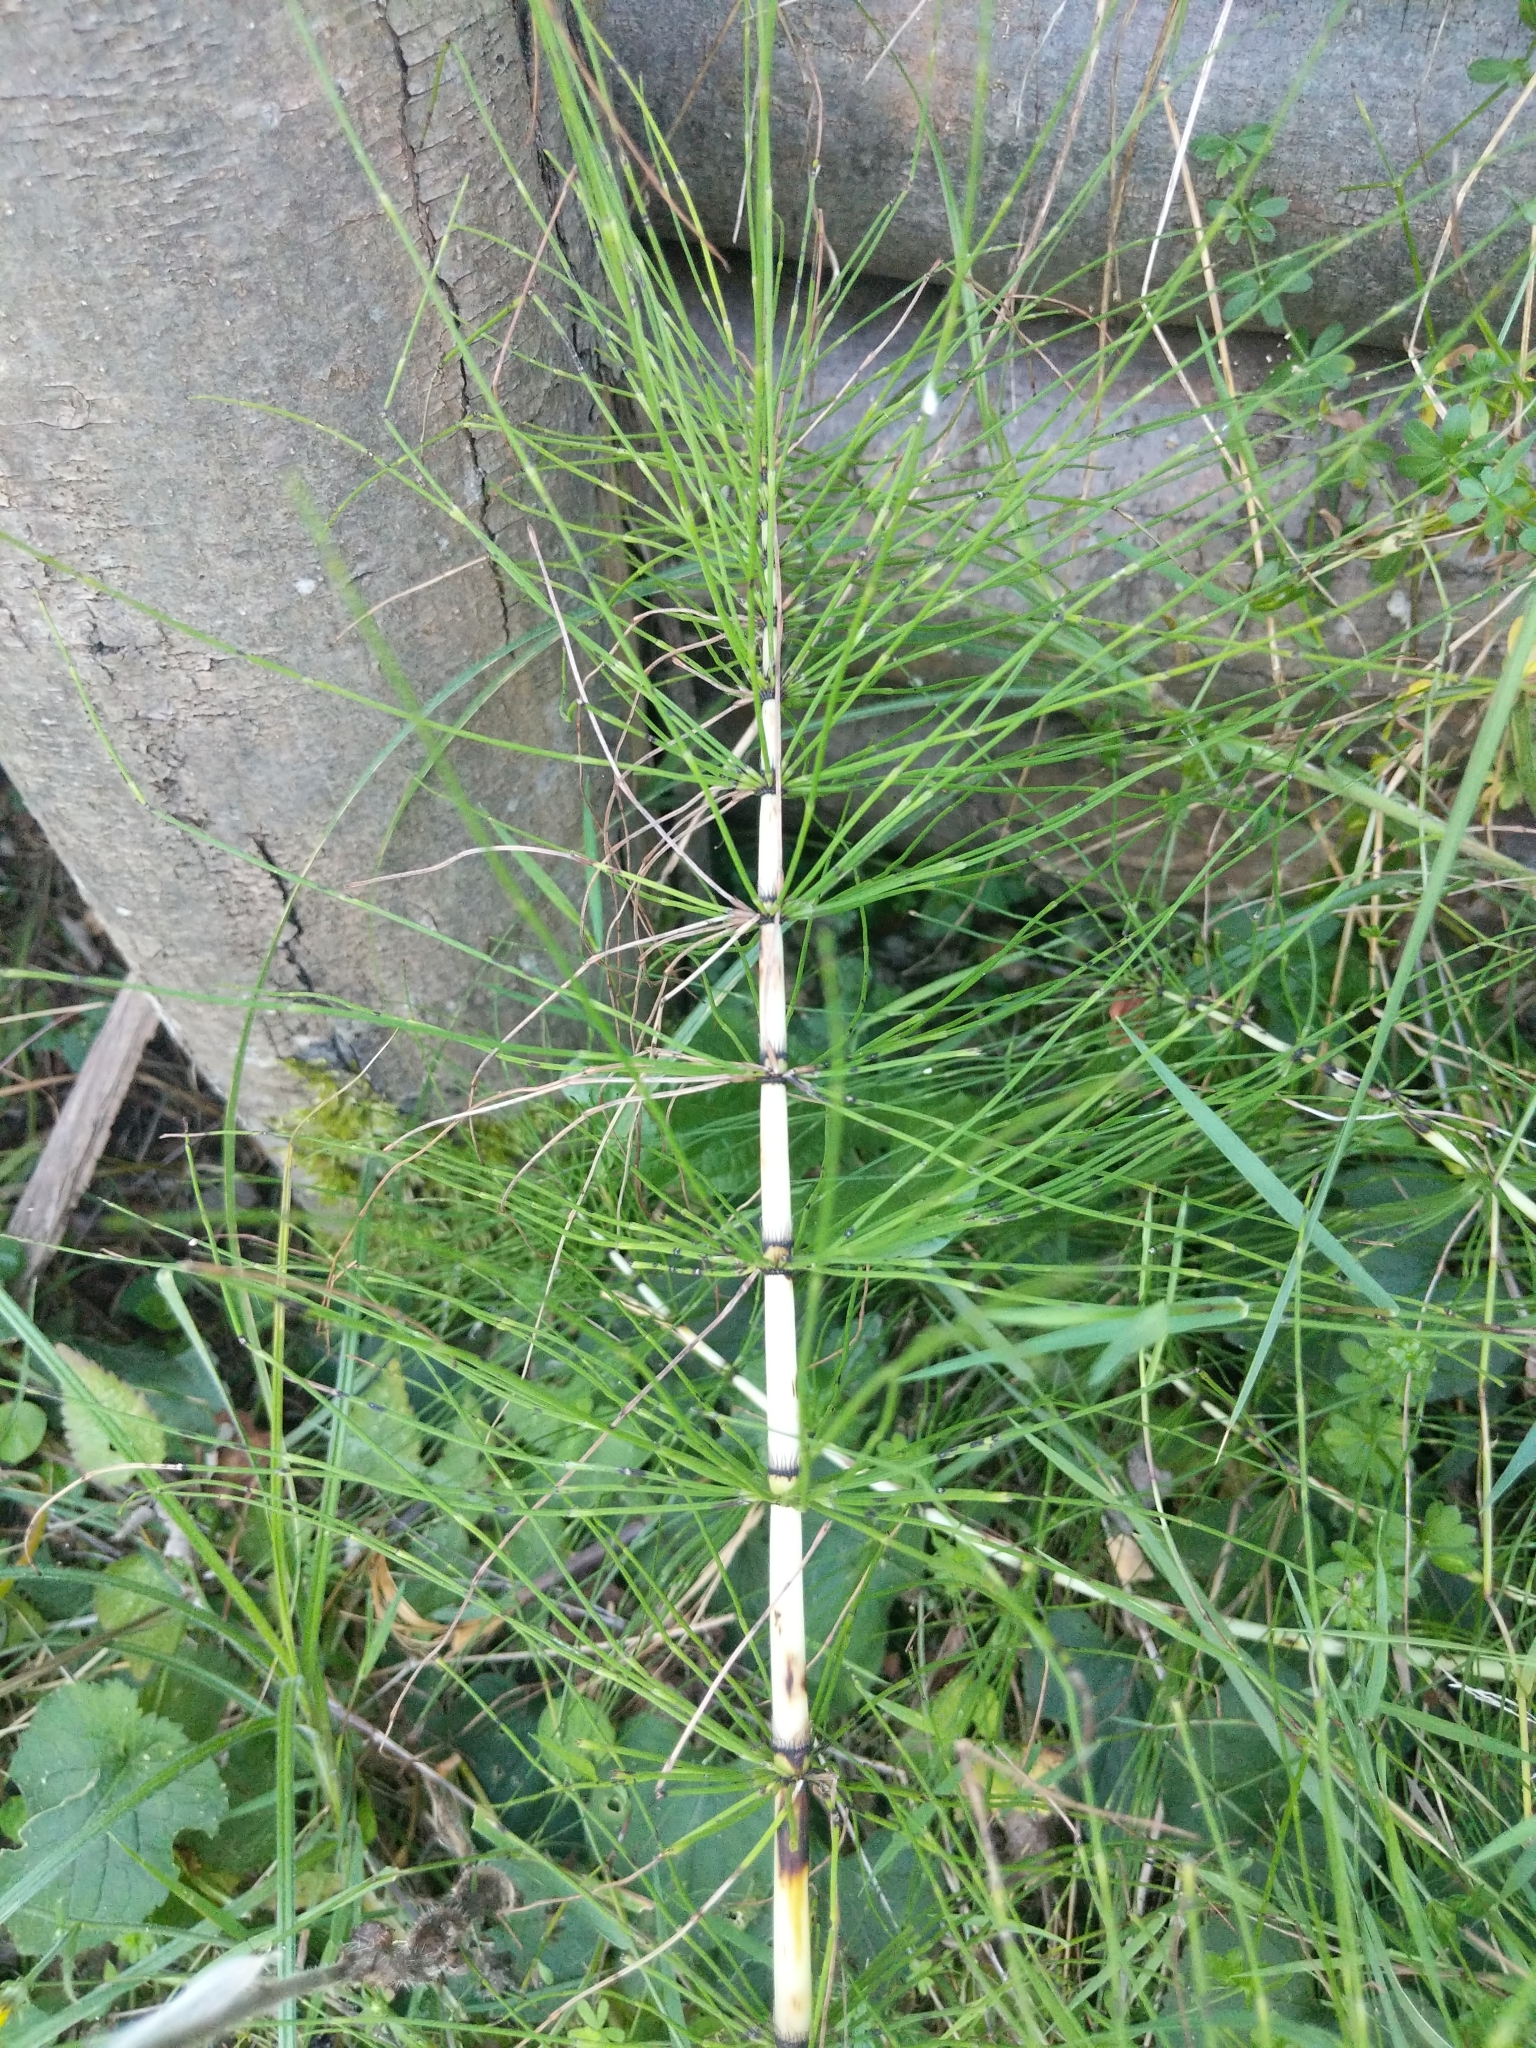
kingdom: Plantae
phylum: Tracheophyta
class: Polypodiopsida
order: Equisetales
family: Equisetaceae
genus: Equisetum
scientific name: Equisetum telmateia
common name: Great horsetail
